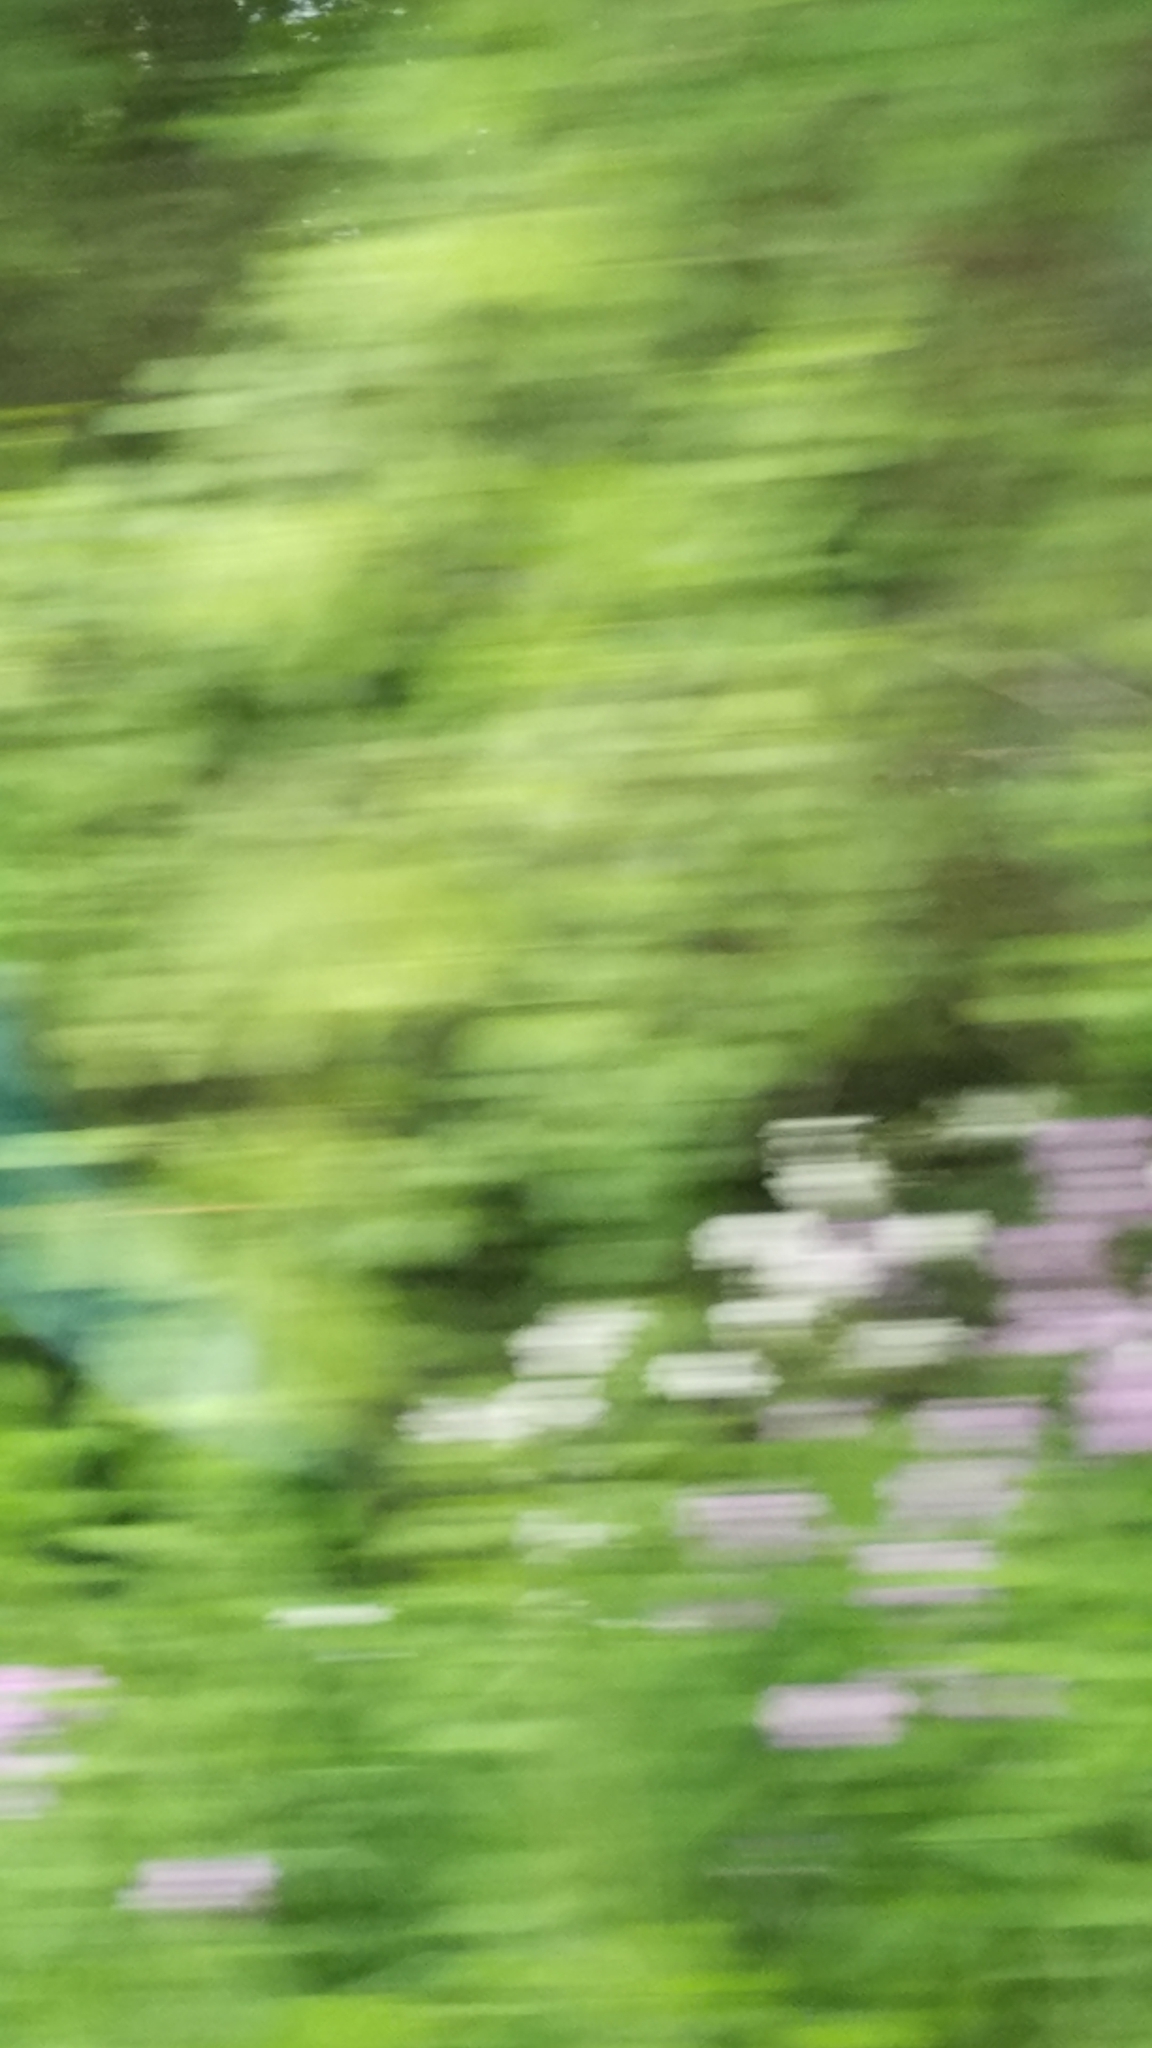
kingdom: Plantae
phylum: Tracheophyta
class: Magnoliopsida
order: Brassicales
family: Brassicaceae
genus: Hesperis
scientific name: Hesperis matronalis
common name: Dame's-violet
